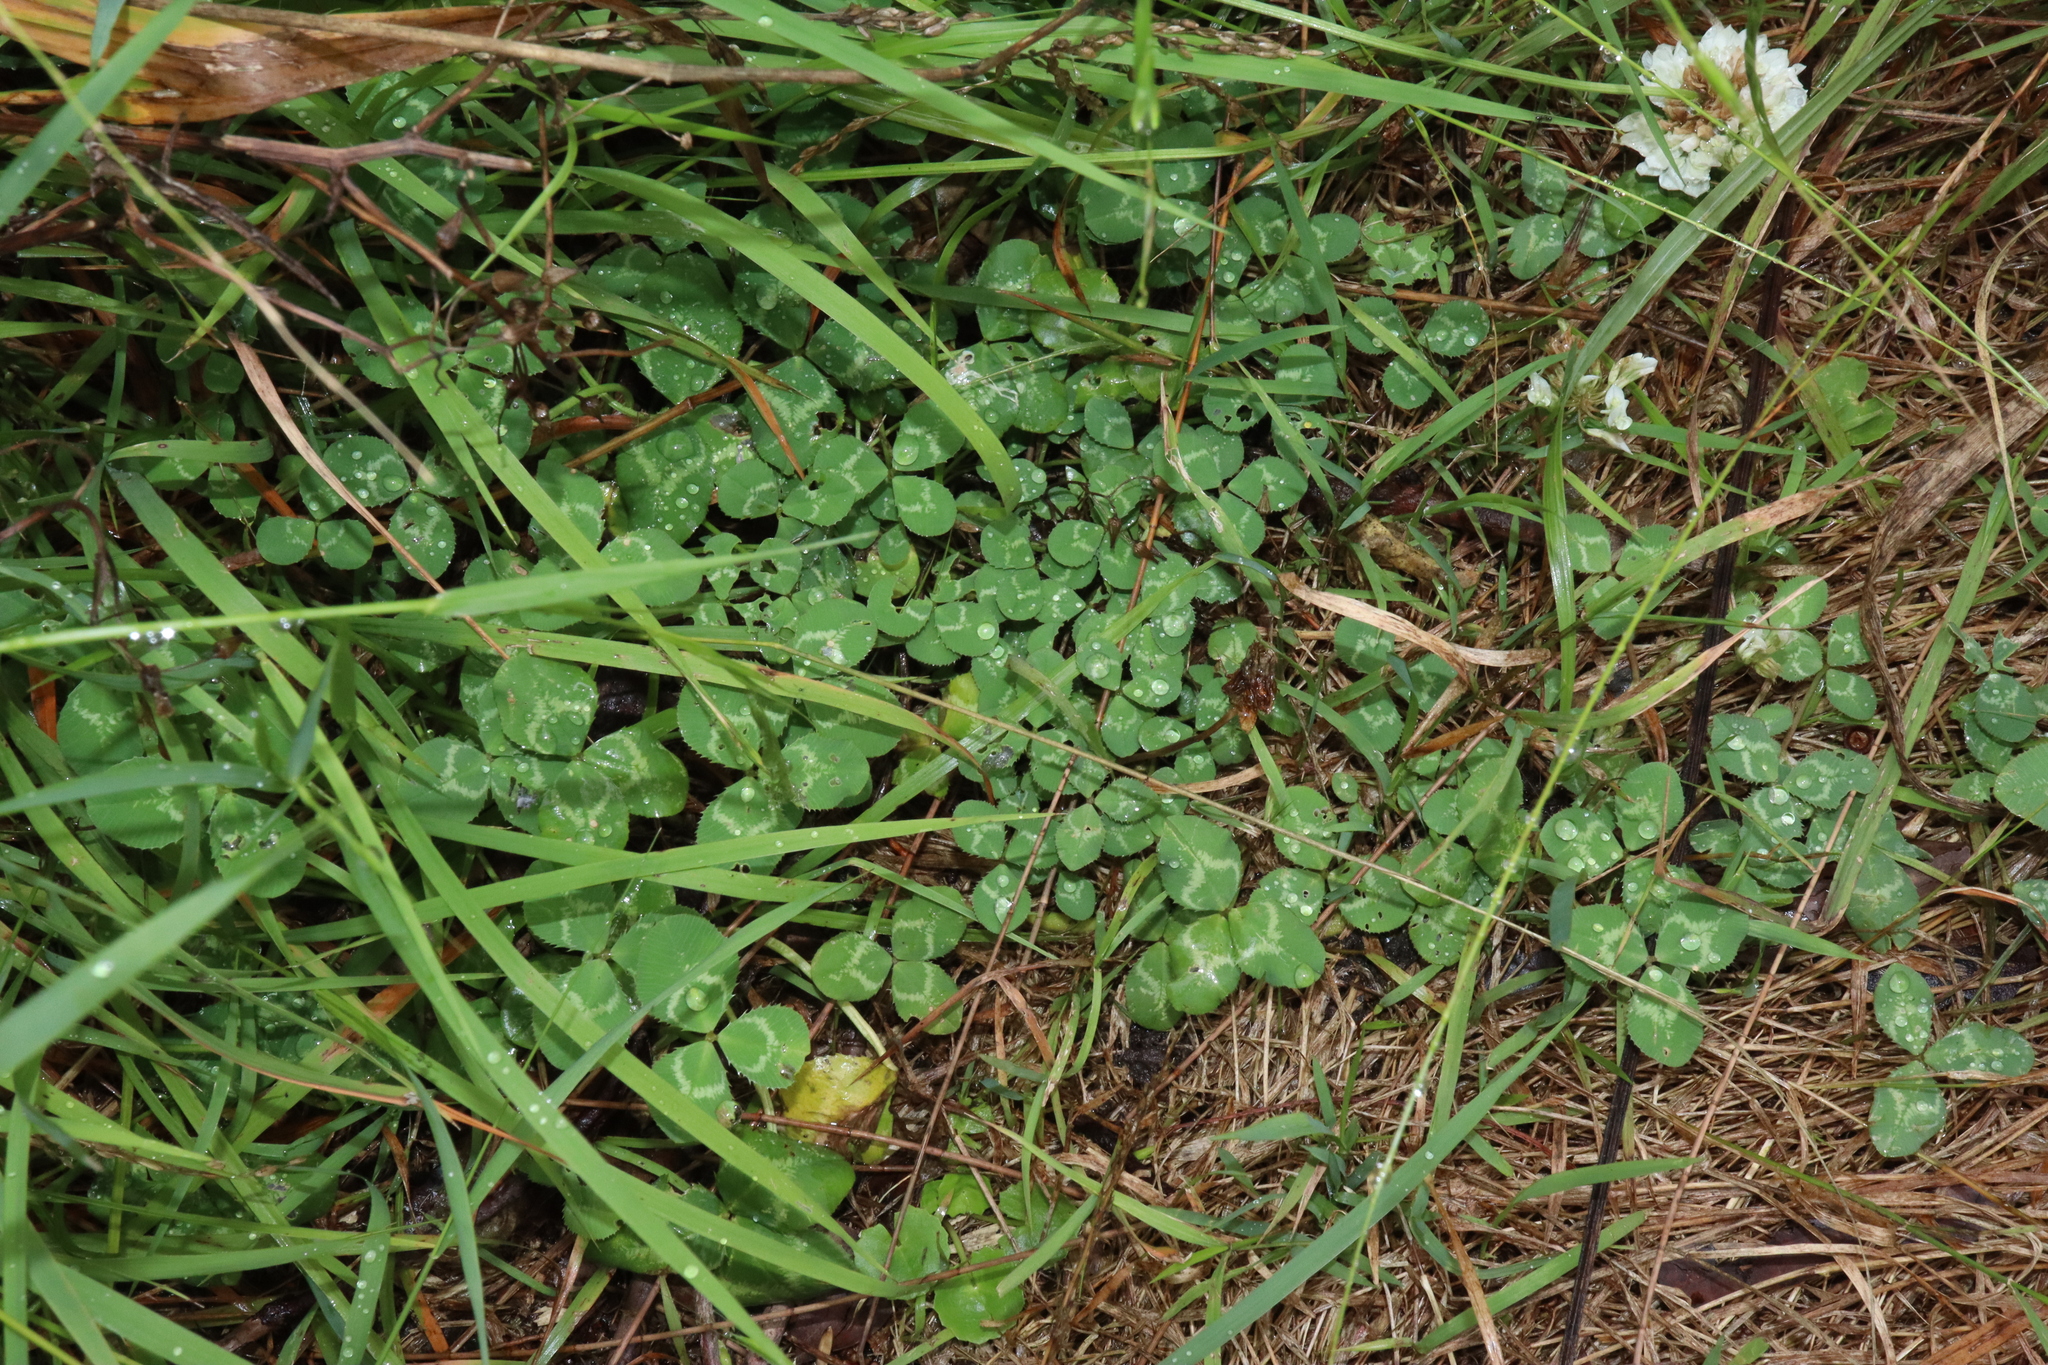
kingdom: Plantae
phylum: Tracheophyta
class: Magnoliopsida
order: Fabales
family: Fabaceae
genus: Trifolium
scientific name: Trifolium repens
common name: White clover
